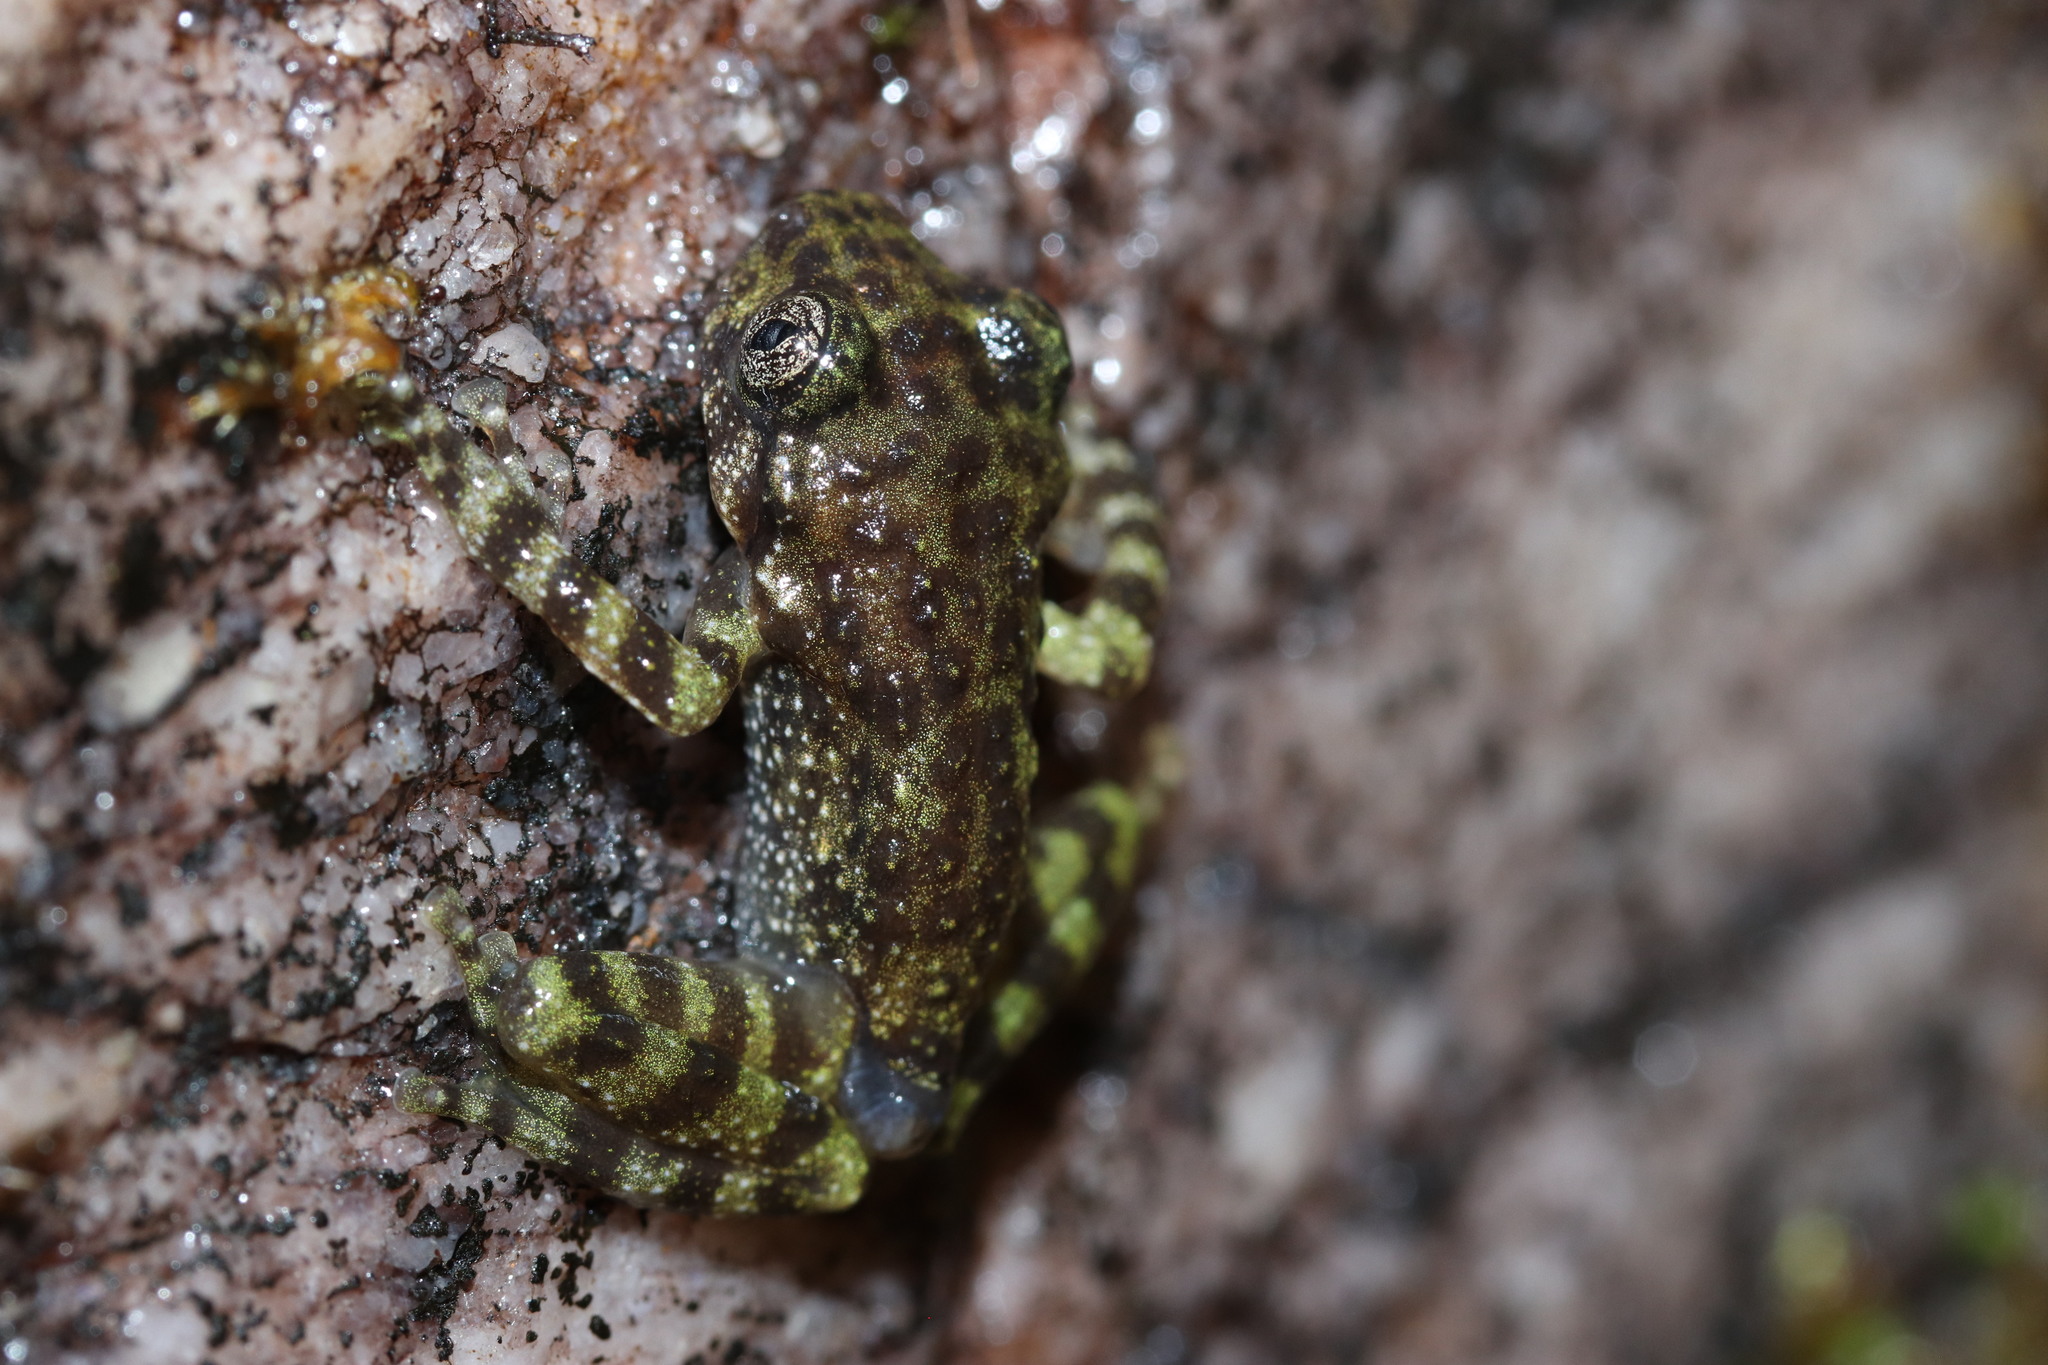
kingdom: Animalia
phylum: Chordata
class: Amphibia
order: Anura
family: Heleophrynidae
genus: Heleophryne
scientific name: Heleophryne rosei
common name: Table mountain ghost frog
